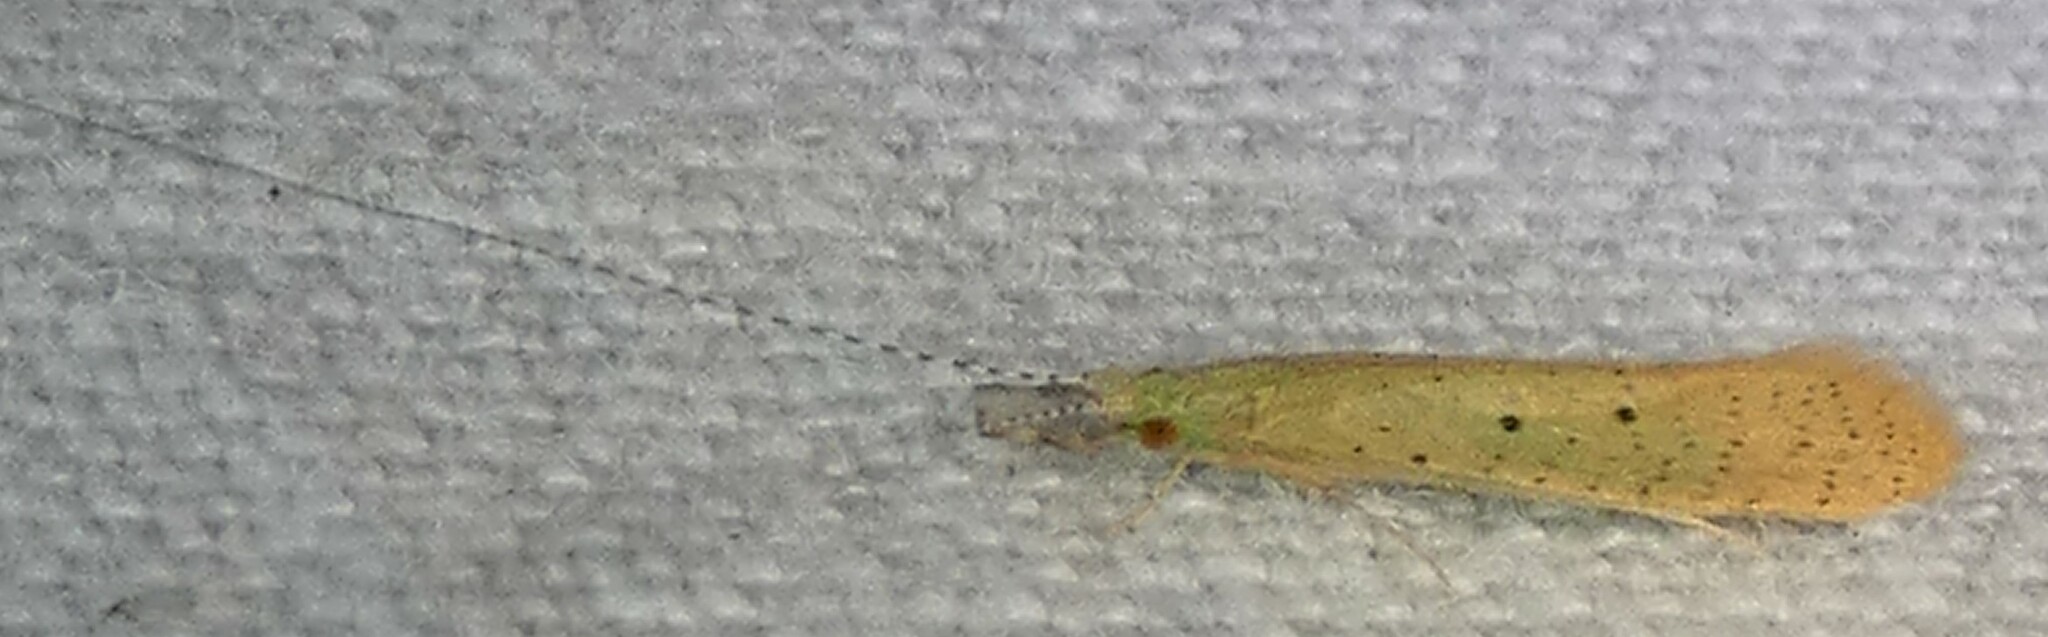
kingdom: Animalia
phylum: Arthropoda
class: Insecta
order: Trichoptera
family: Leptoceridae
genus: Nectopsyche
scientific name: Nectopsyche pavida
